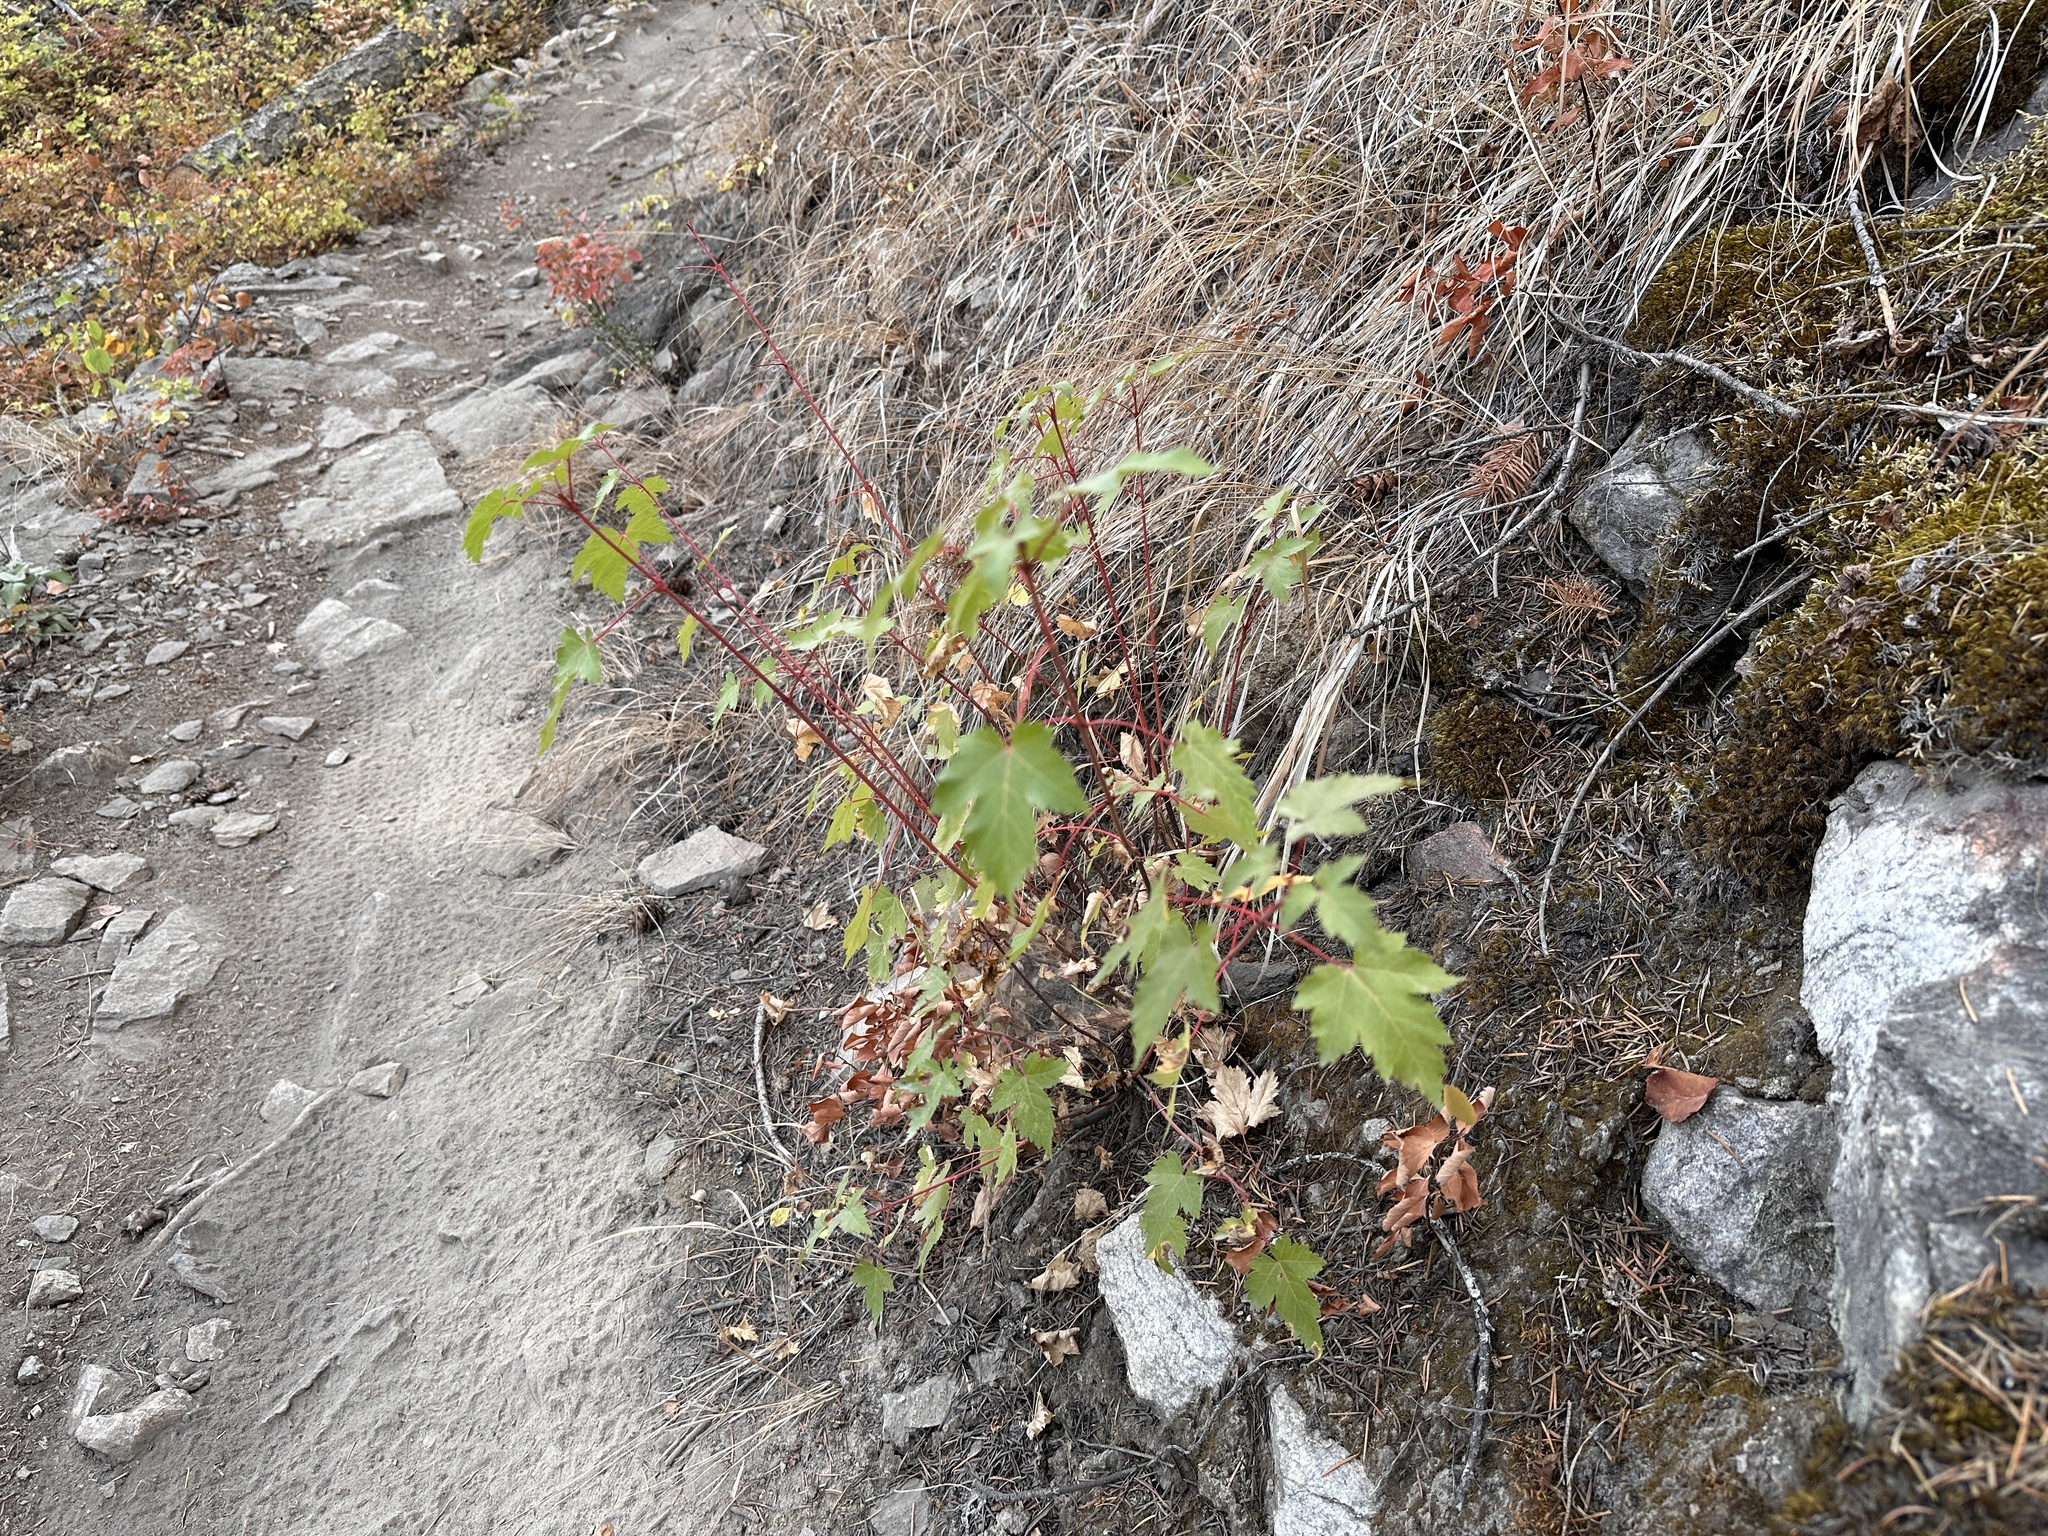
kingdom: Plantae
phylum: Tracheophyta
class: Magnoliopsida
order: Sapindales
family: Sapindaceae
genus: Acer
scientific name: Acer glabrum
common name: Rocky mountain maple
